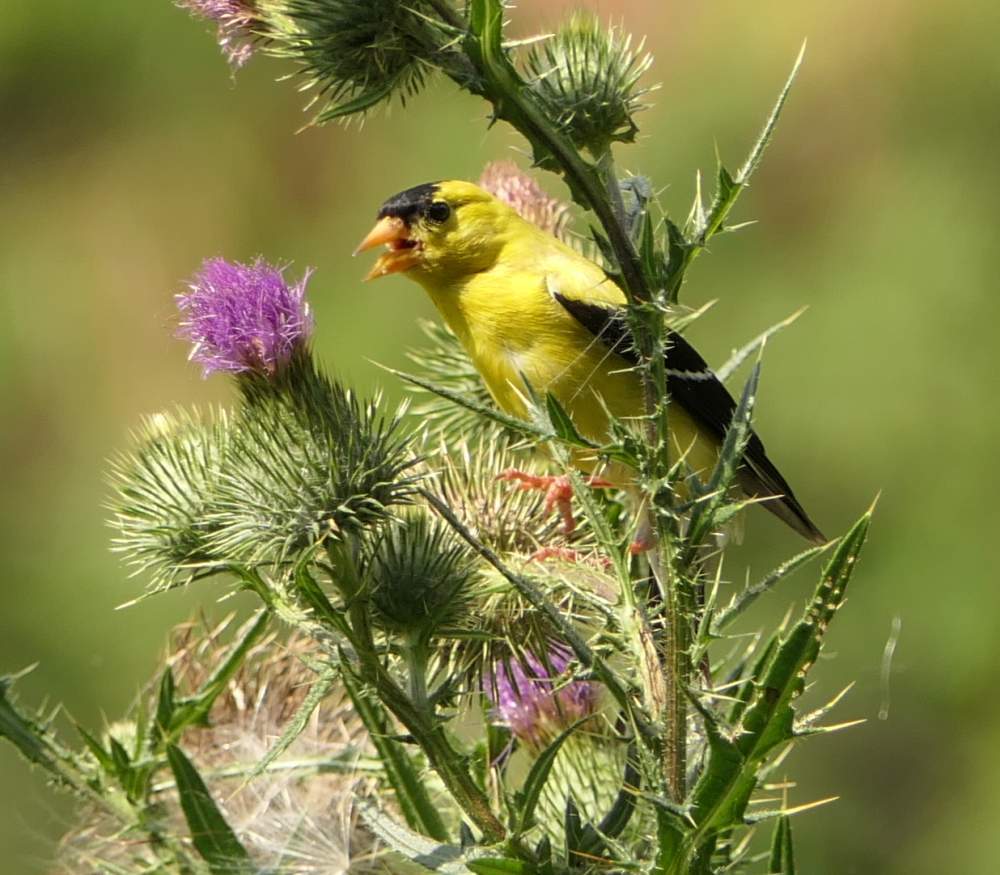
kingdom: Animalia
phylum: Chordata
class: Aves
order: Passeriformes
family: Fringillidae
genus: Spinus
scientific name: Spinus tristis
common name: American goldfinch
